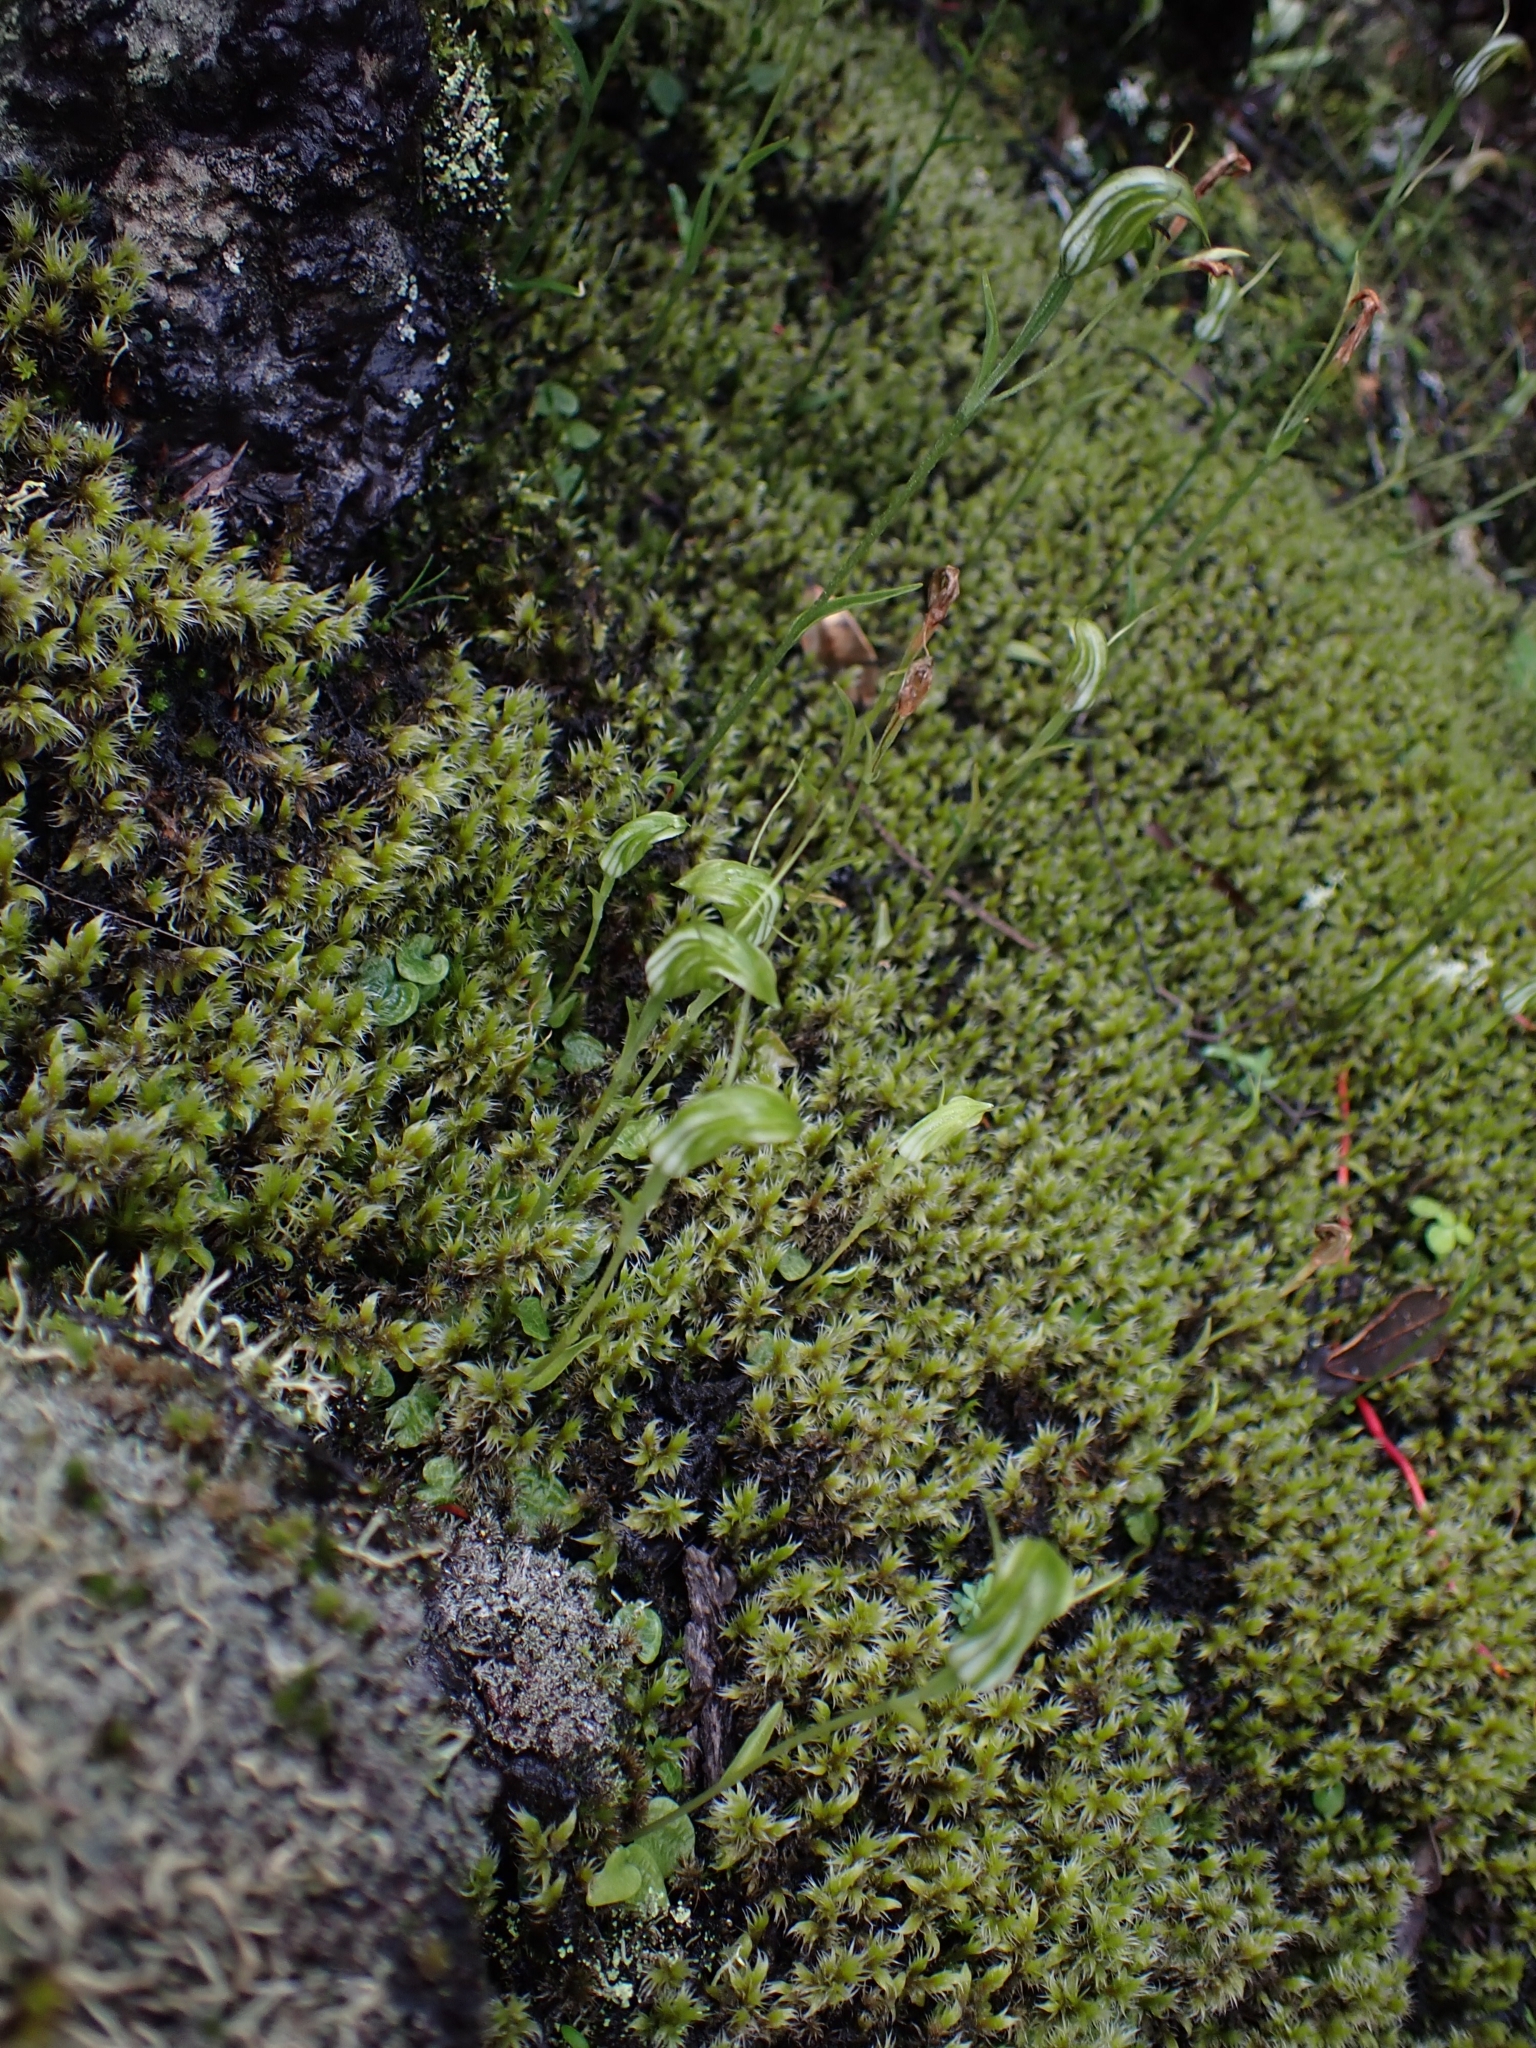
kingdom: Plantae
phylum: Tracheophyta
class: Liliopsida
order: Asparagales
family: Orchidaceae
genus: Pterostylis
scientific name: Pterostylis trullifolia
